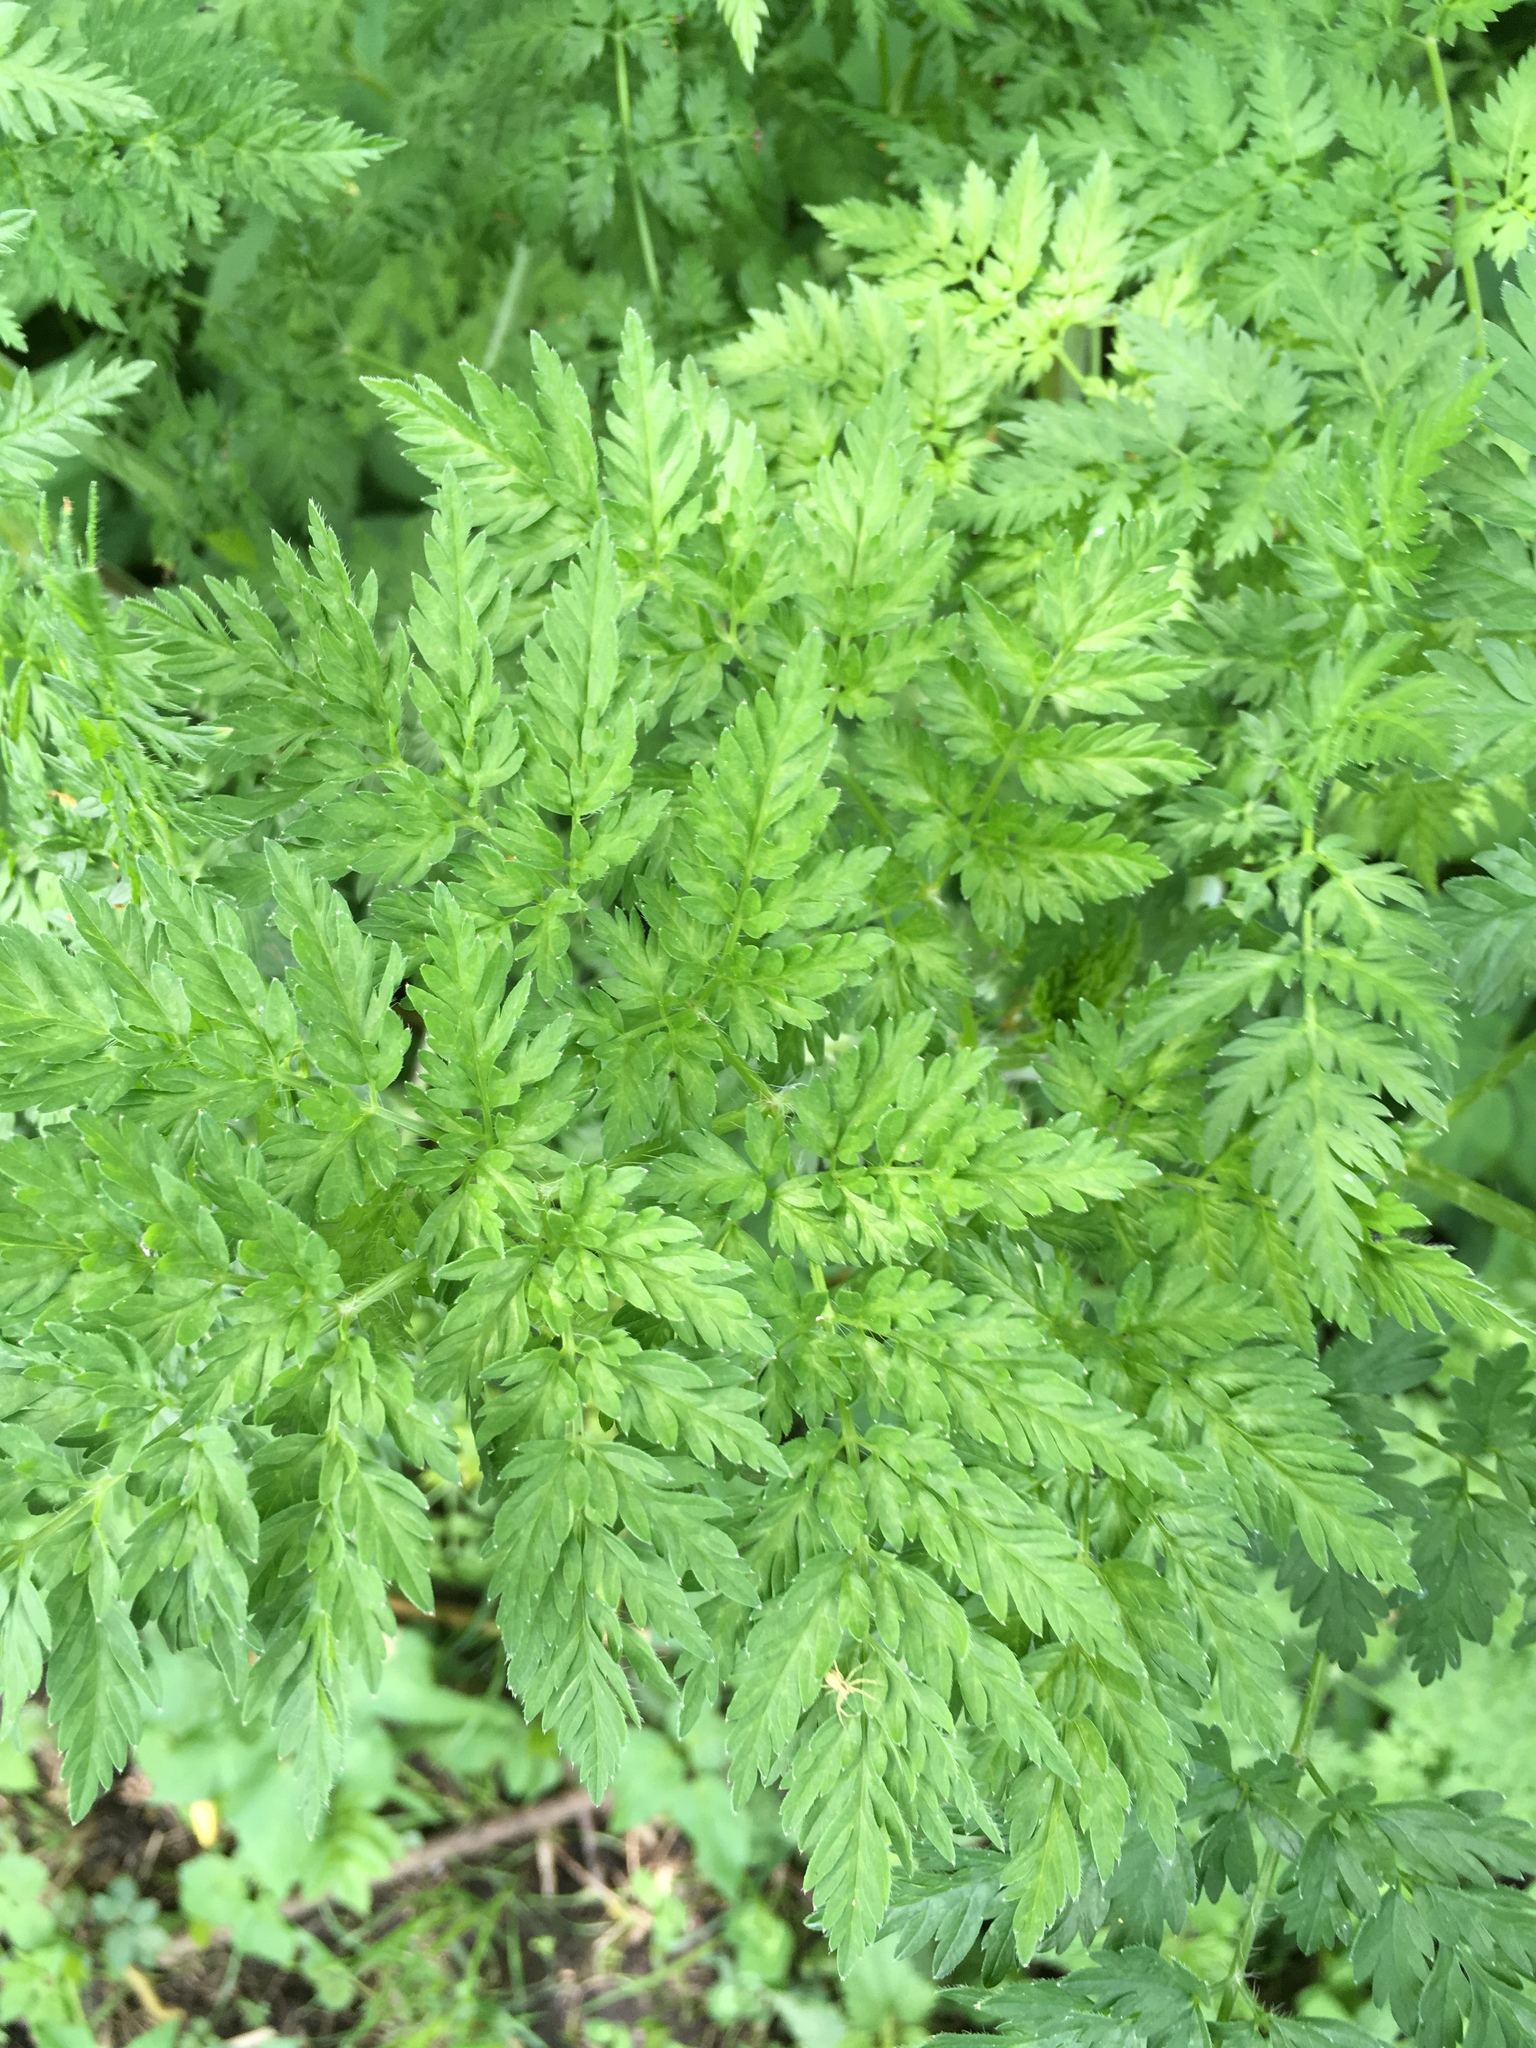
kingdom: Plantae
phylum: Tracheophyta
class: Magnoliopsida
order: Apiales
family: Apiaceae
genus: Conium
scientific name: Conium maculatum
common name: Hemlock
